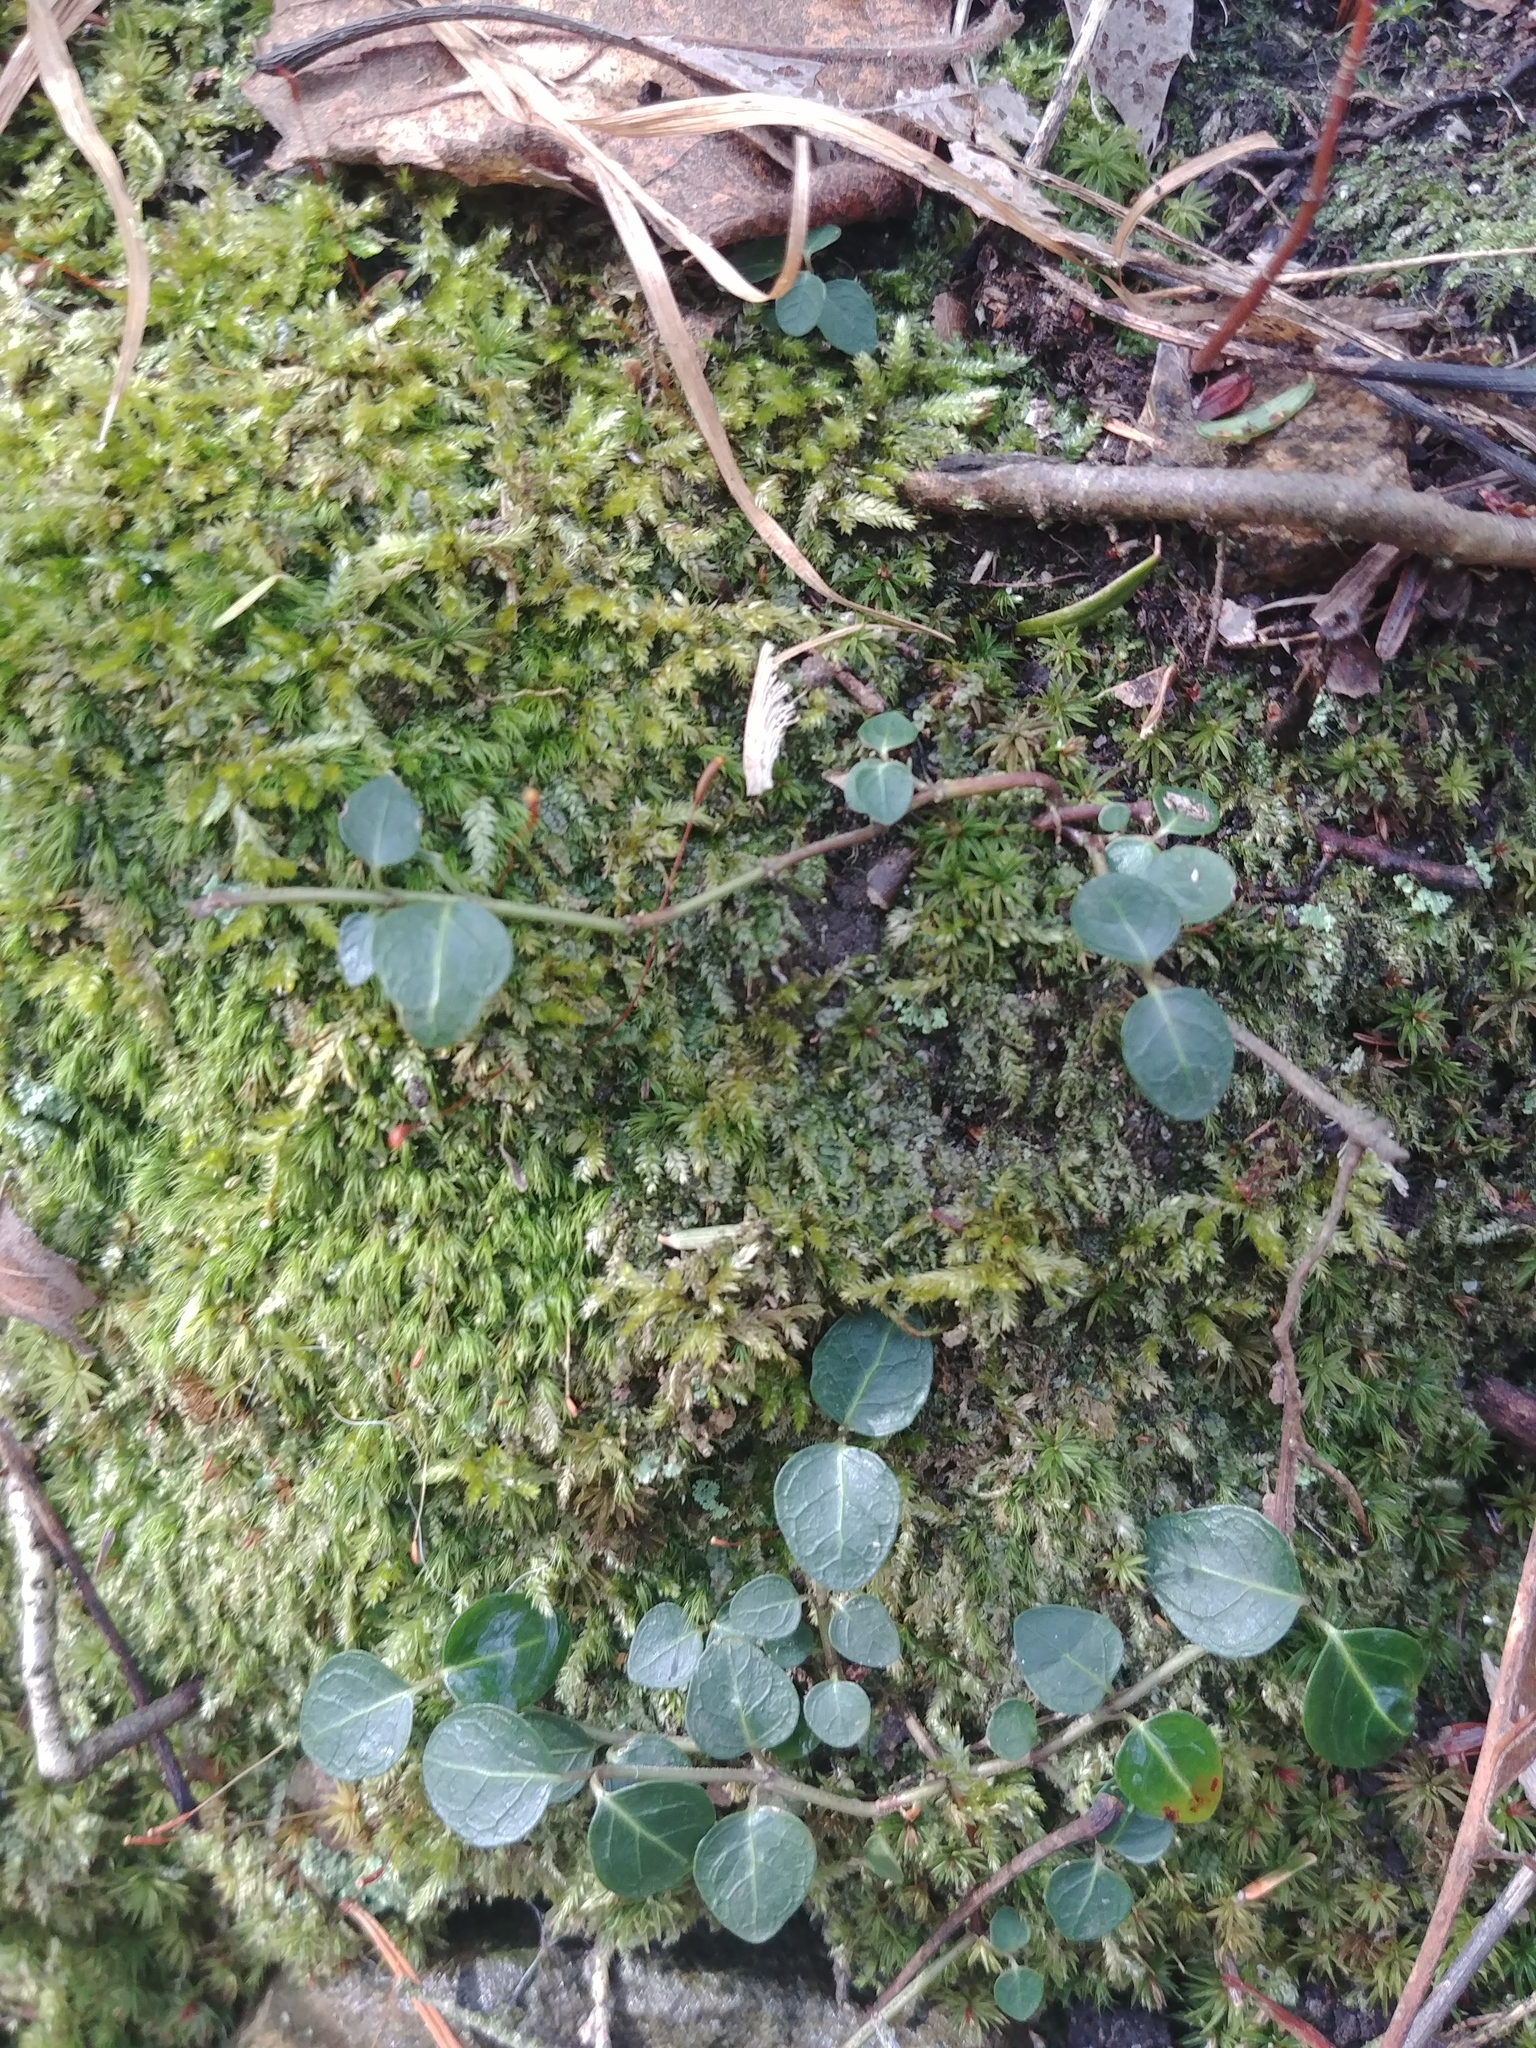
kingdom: Plantae
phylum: Tracheophyta
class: Magnoliopsida
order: Gentianales
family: Rubiaceae
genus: Mitchella
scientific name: Mitchella repens
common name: Partridge-berry
